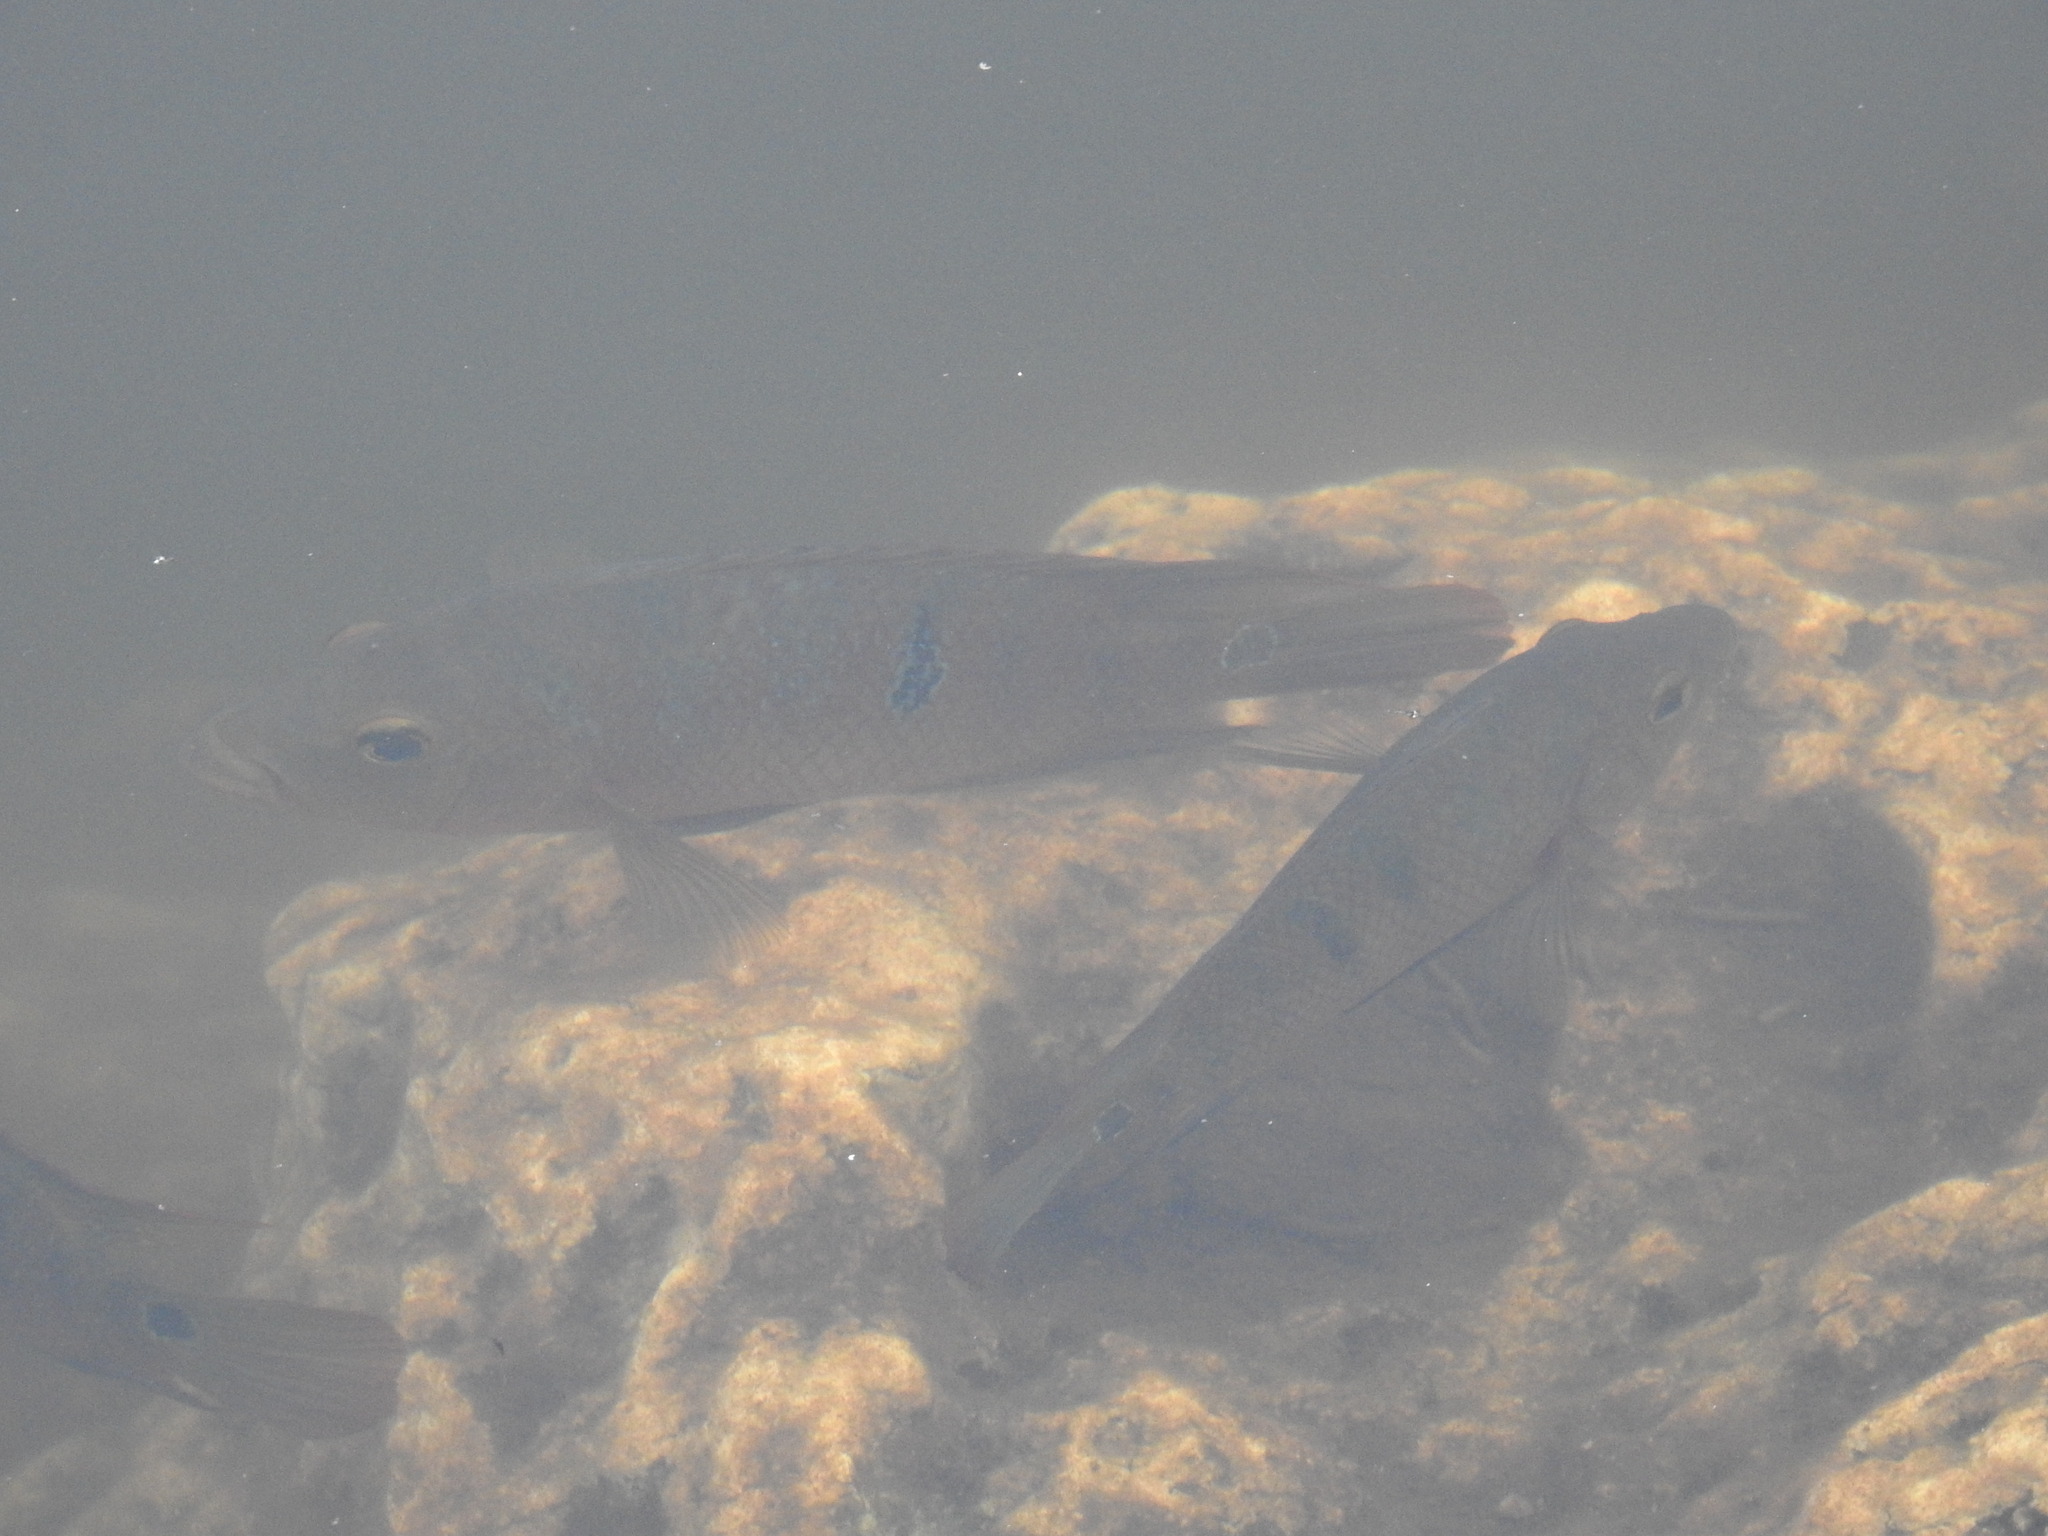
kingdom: Animalia
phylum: Chordata
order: Perciformes
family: Cichlidae
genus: Mayaheros
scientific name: Mayaheros urophthalmus
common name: Mayan cichlid
